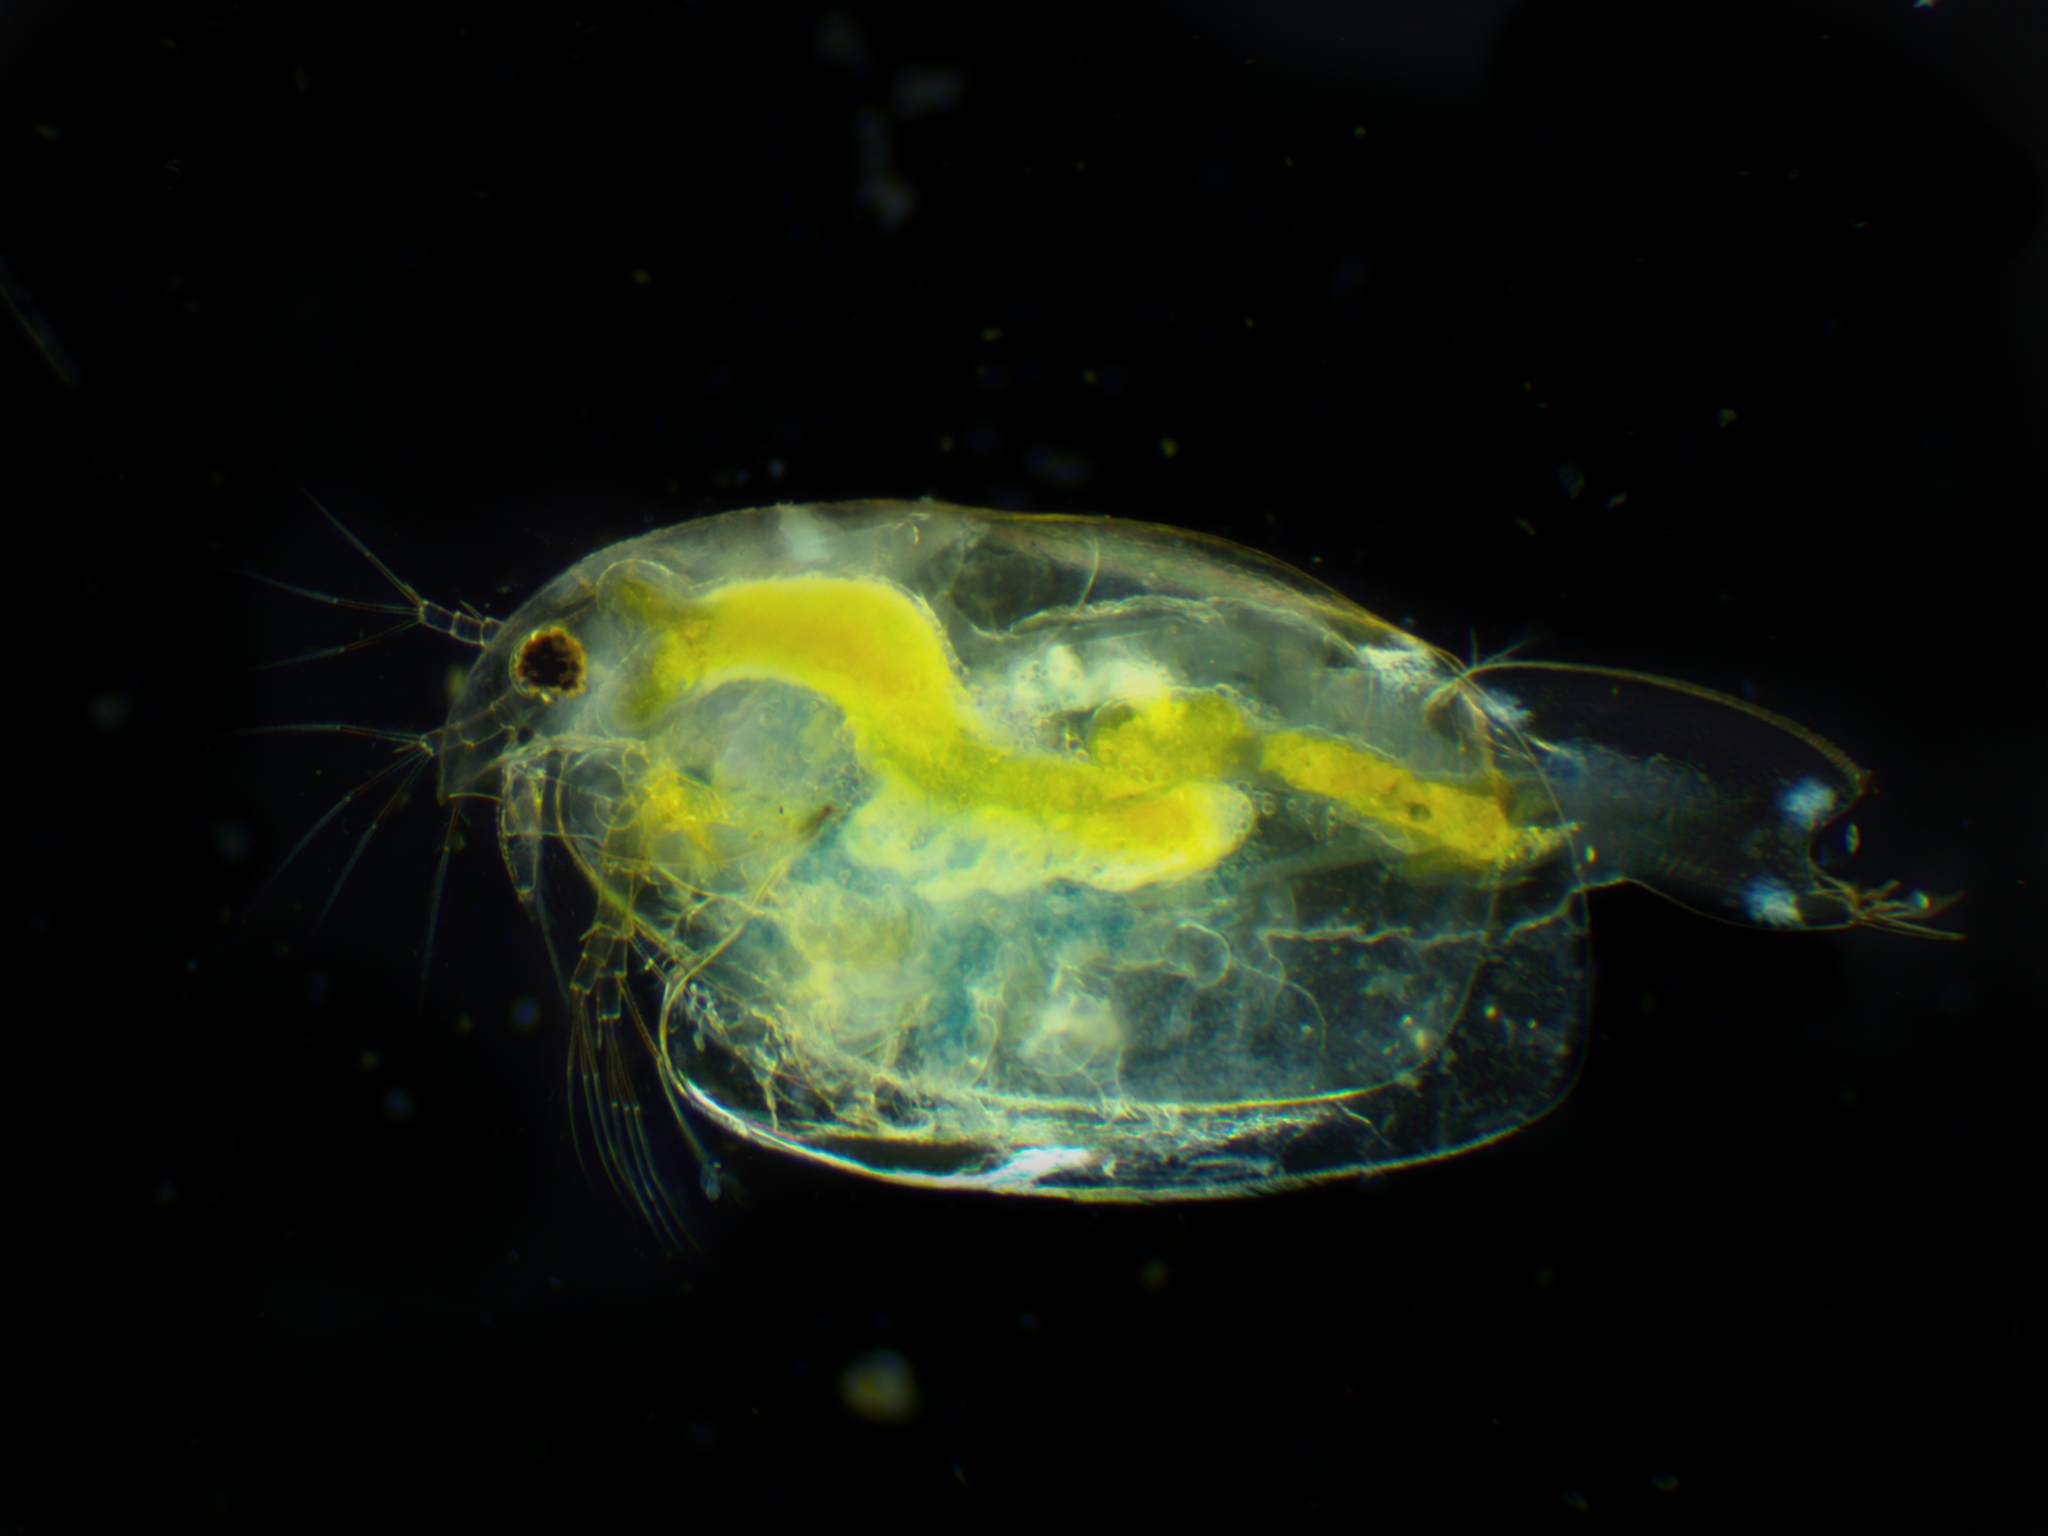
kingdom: Animalia
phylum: Arthropoda
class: Branchiopoda
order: Diplostraca
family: Eurycercidae
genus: Eurycercus
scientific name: Eurycercus lamellatus
